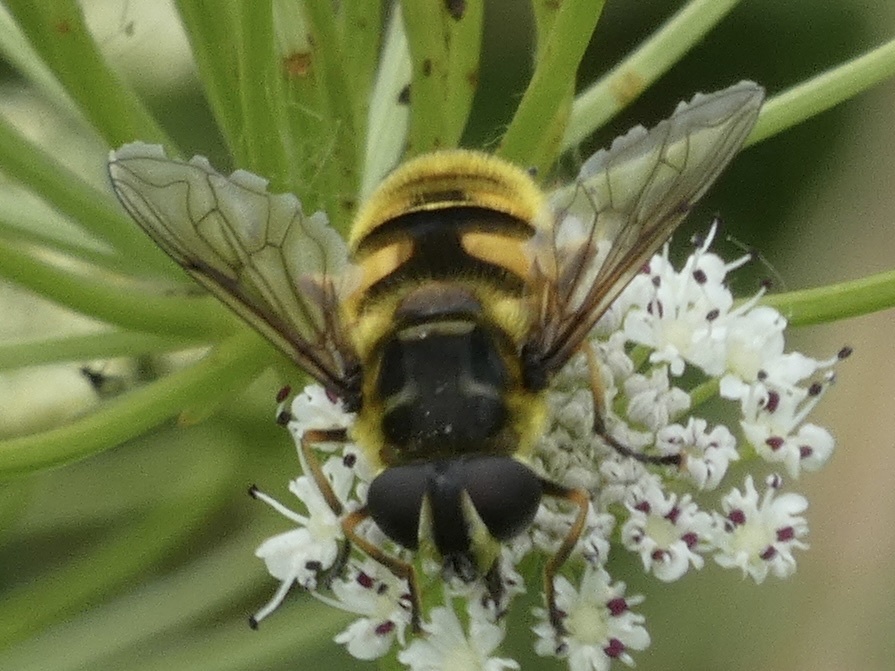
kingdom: Animalia
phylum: Arthropoda
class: Insecta
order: Diptera
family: Syrphidae
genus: Myathropa
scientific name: Myathropa florea
